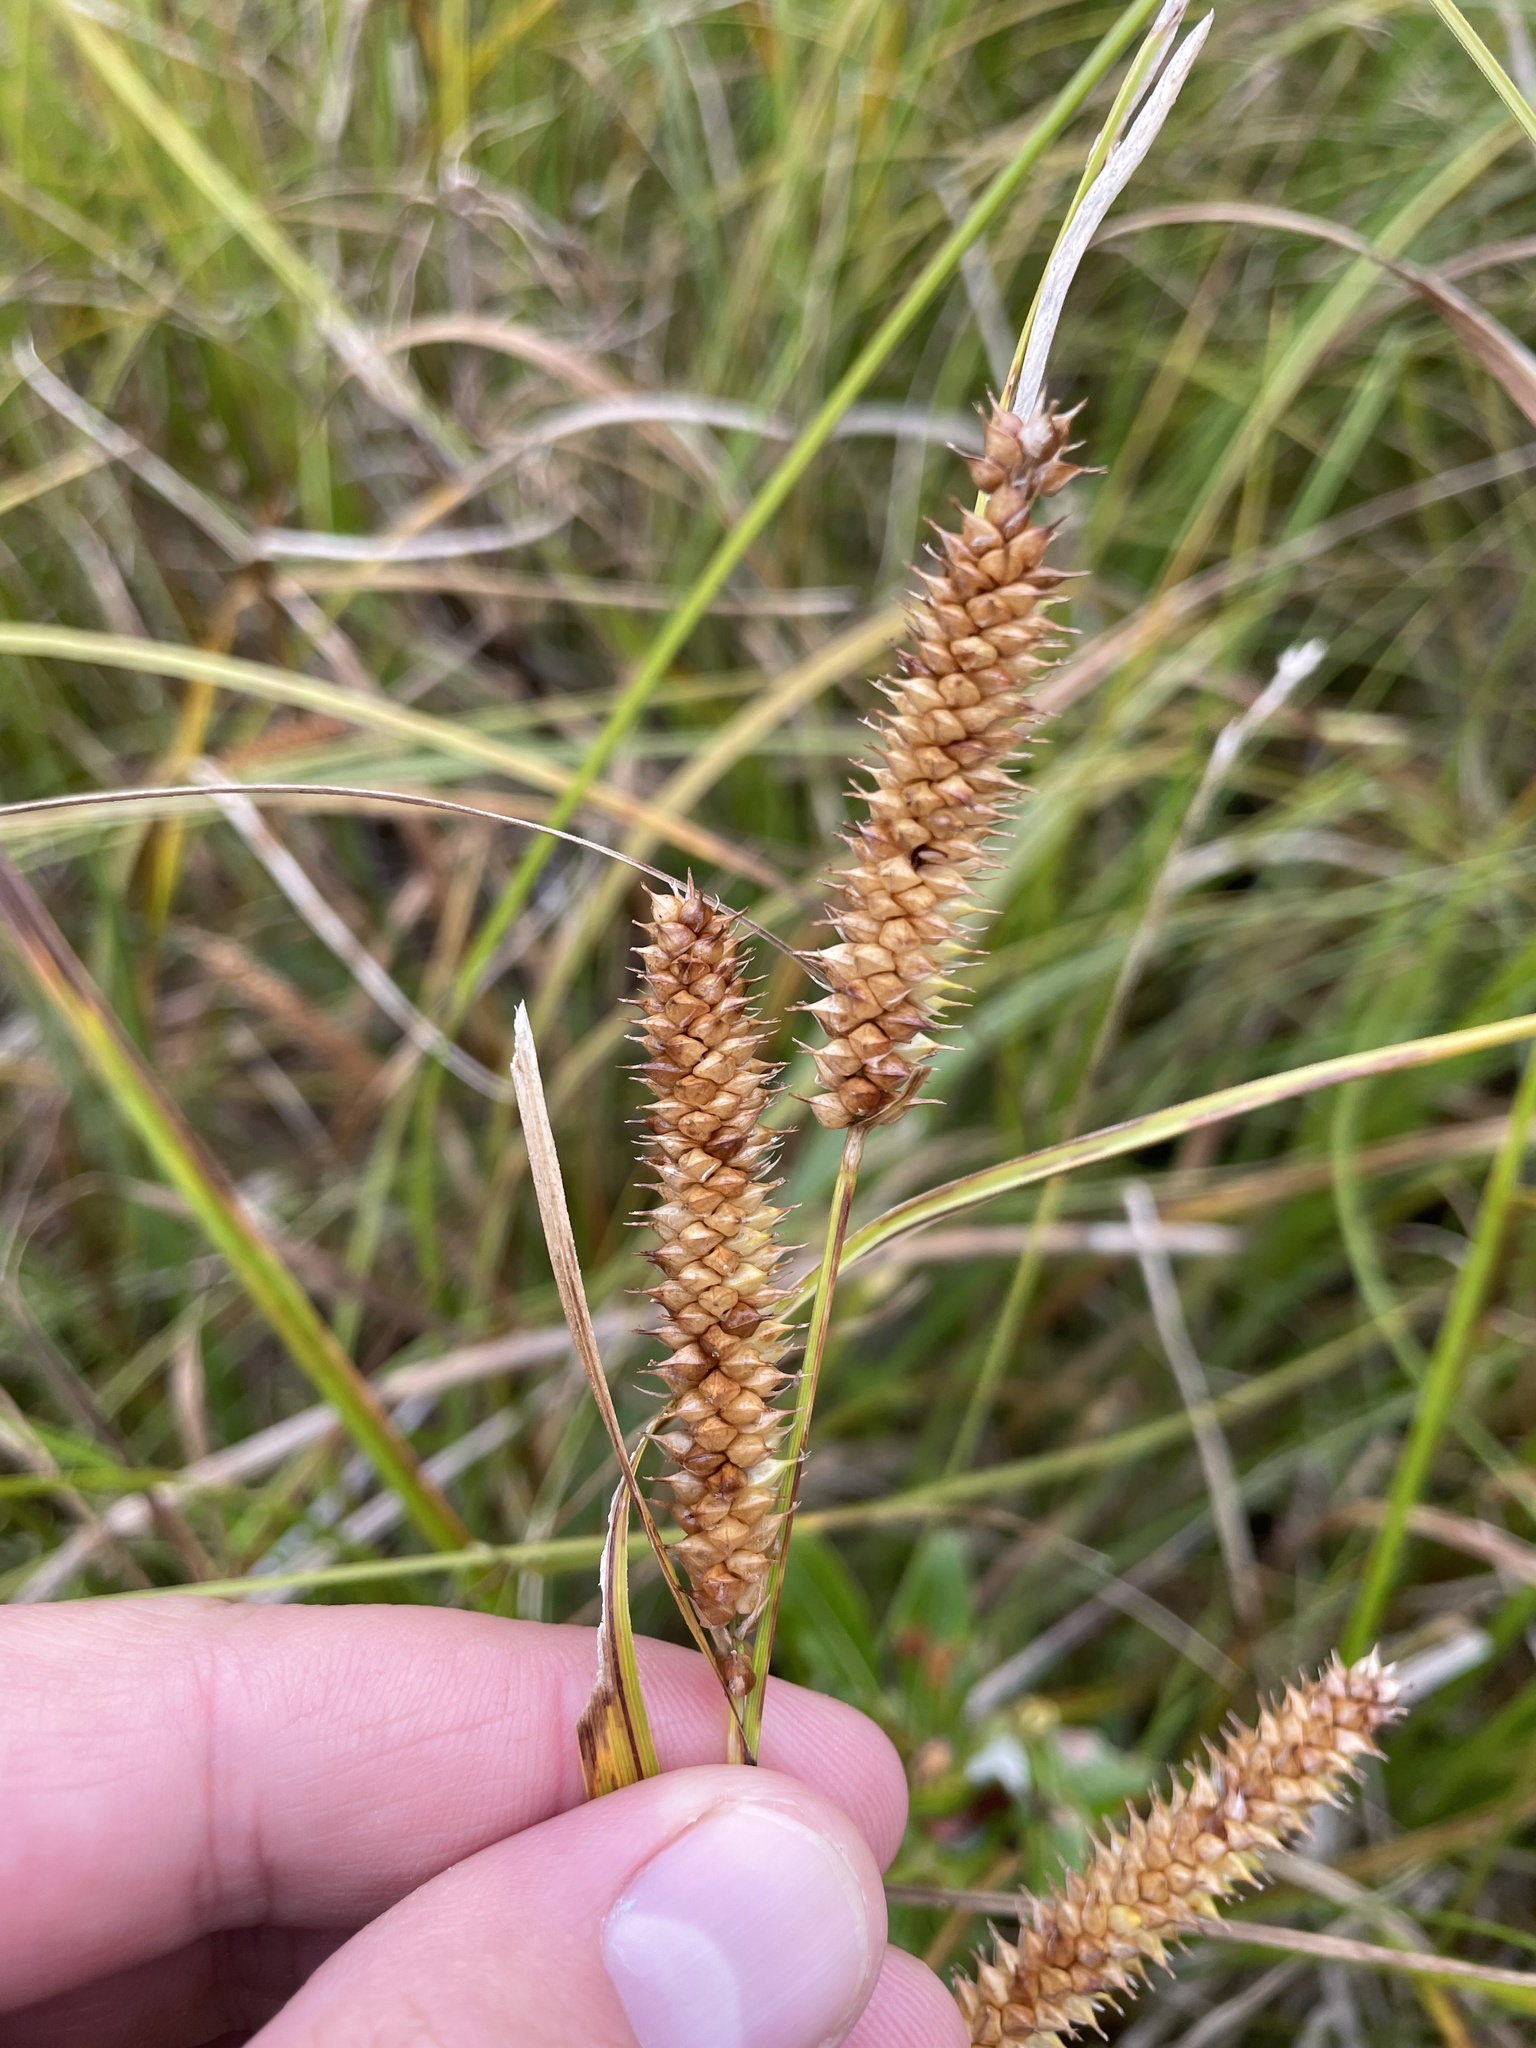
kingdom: Plantae
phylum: Tracheophyta
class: Liliopsida
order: Poales
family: Cyperaceae
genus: Carex
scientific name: Carex utriculata
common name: Beaked sedge
